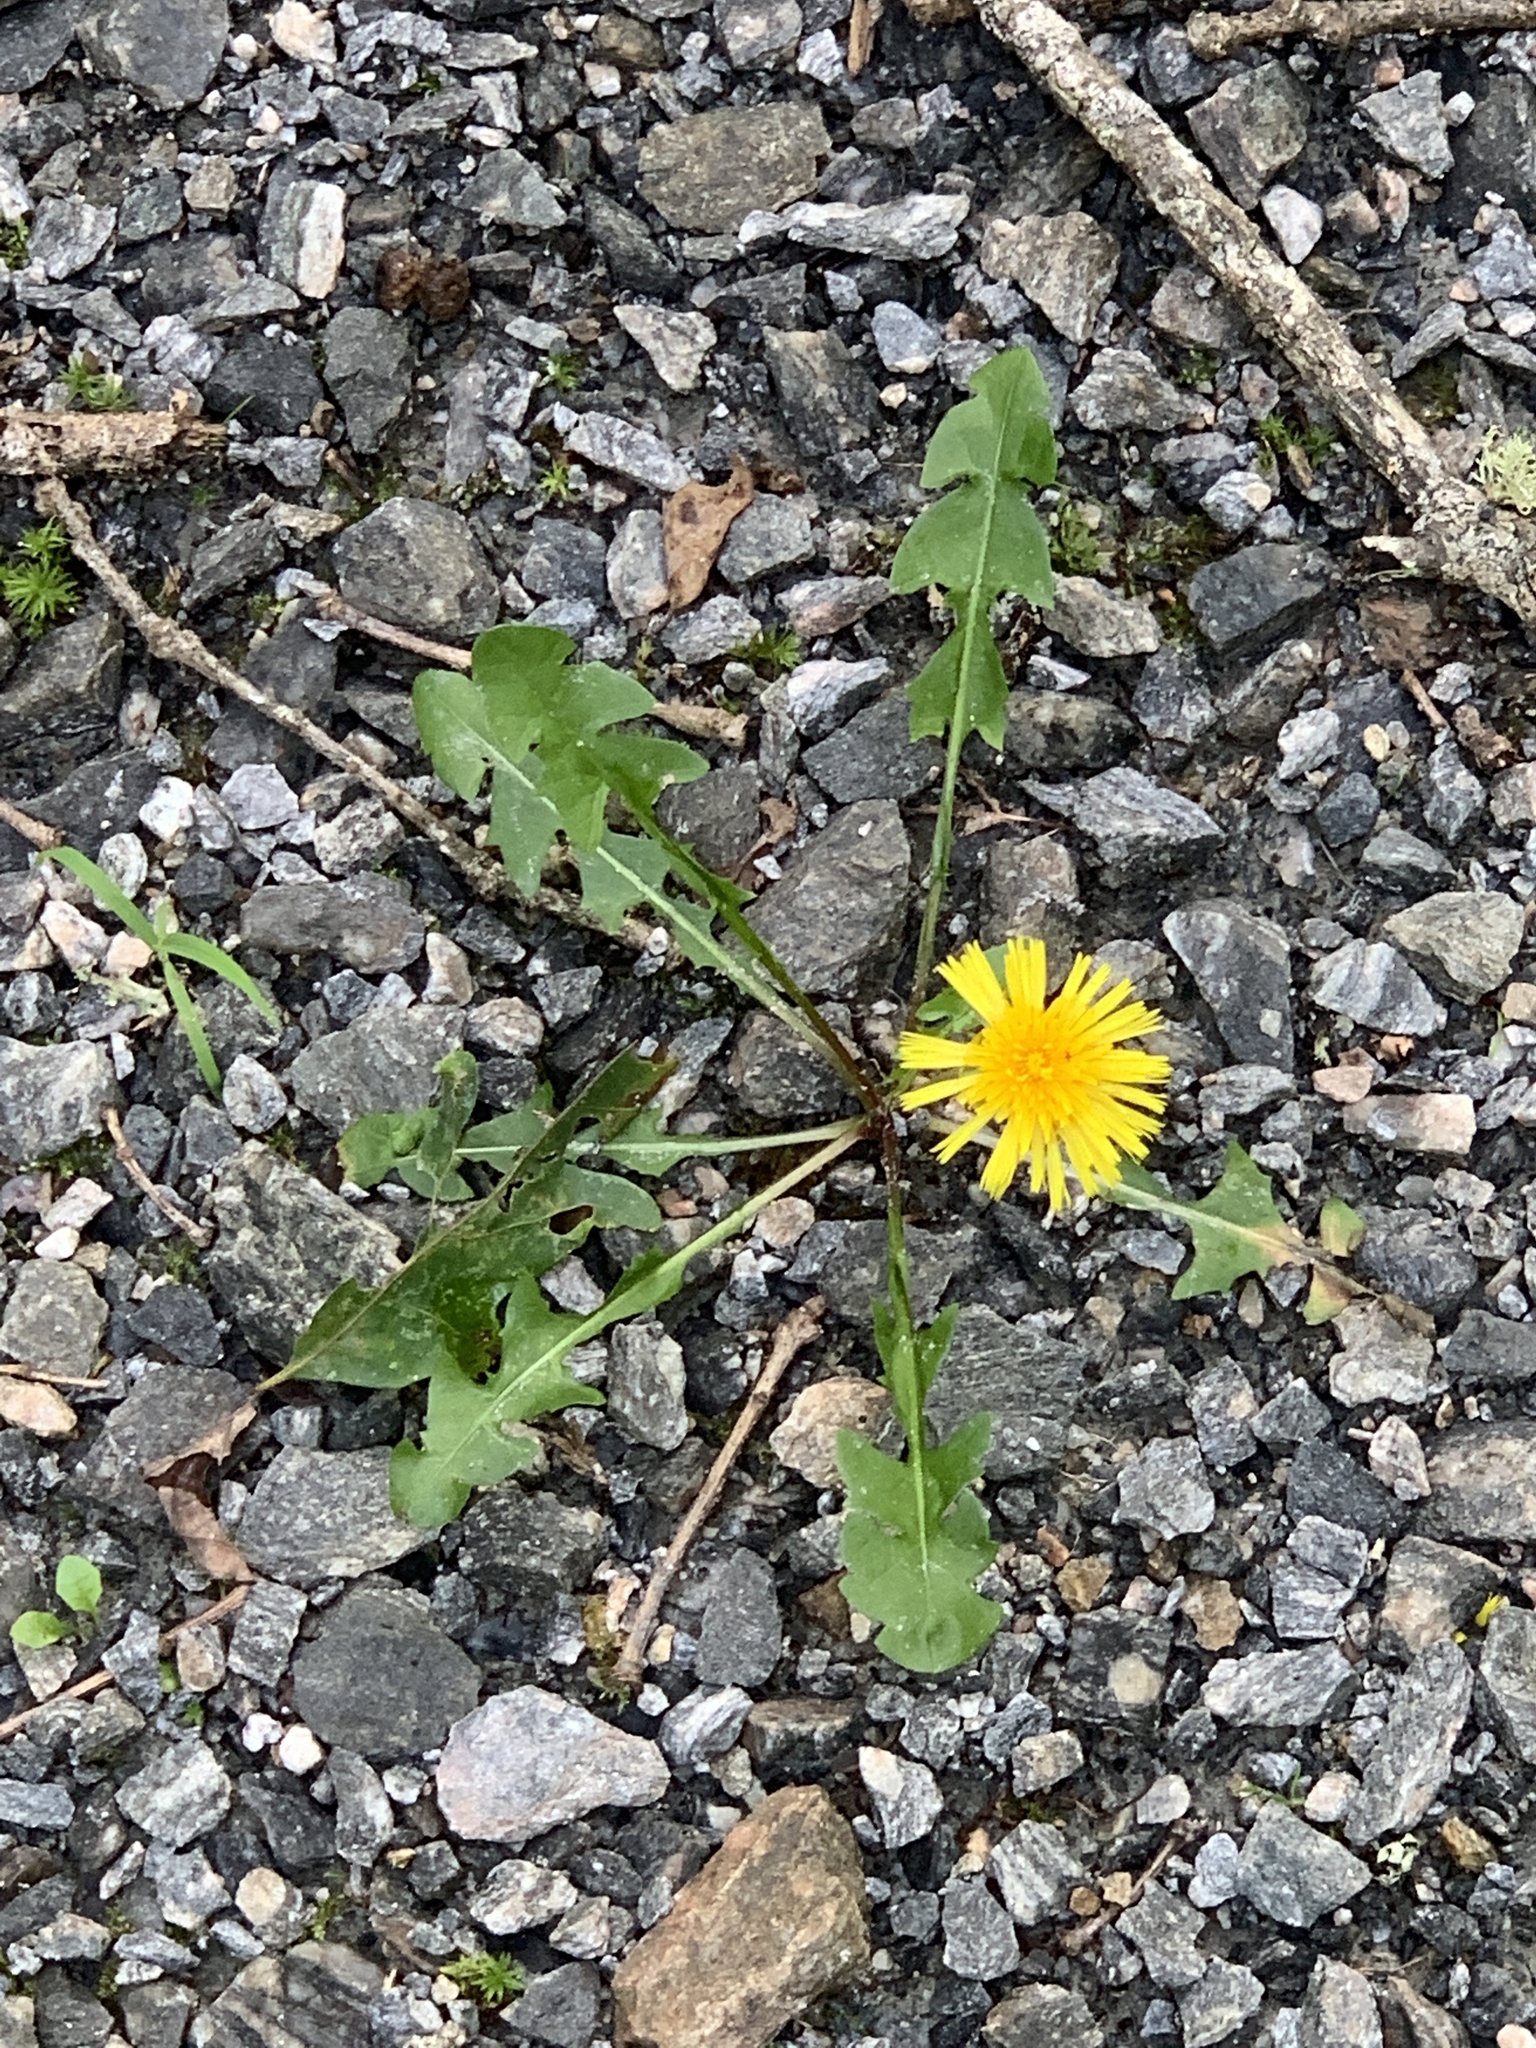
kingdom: Plantae
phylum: Tracheophyta
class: Magnoliopsida
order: Asterales
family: Asteraceae
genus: Taraxacum
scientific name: Taraxacum officinale
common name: Common dandelion
